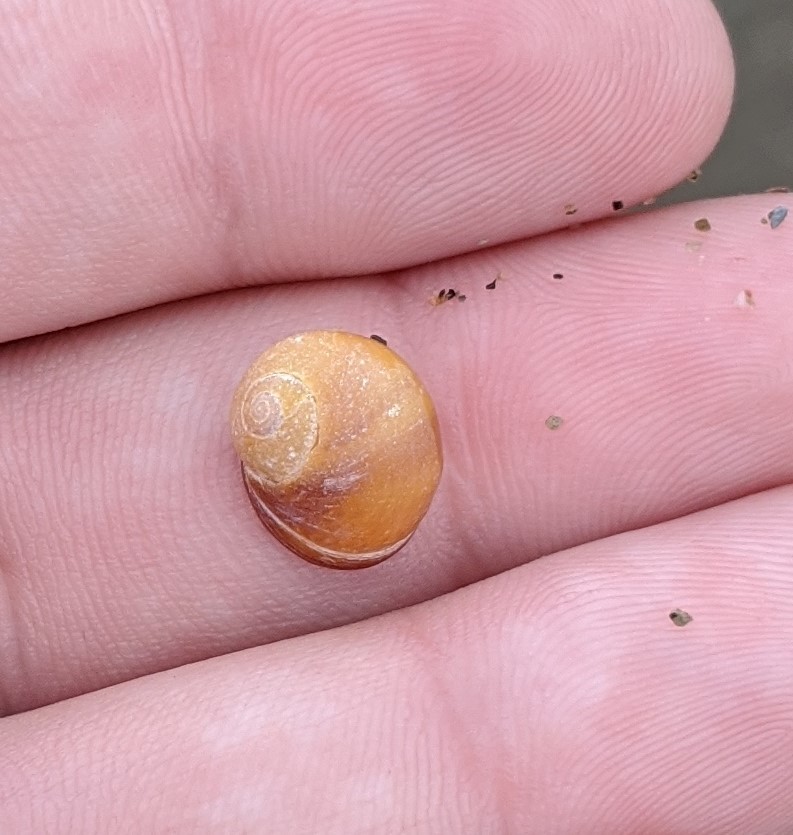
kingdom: Animalia
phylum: Mollusca
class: Gastropoda
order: Littorinimorpha
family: Littorinidae
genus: Littorina
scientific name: Littorina obtusata
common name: Flat periwinkle
